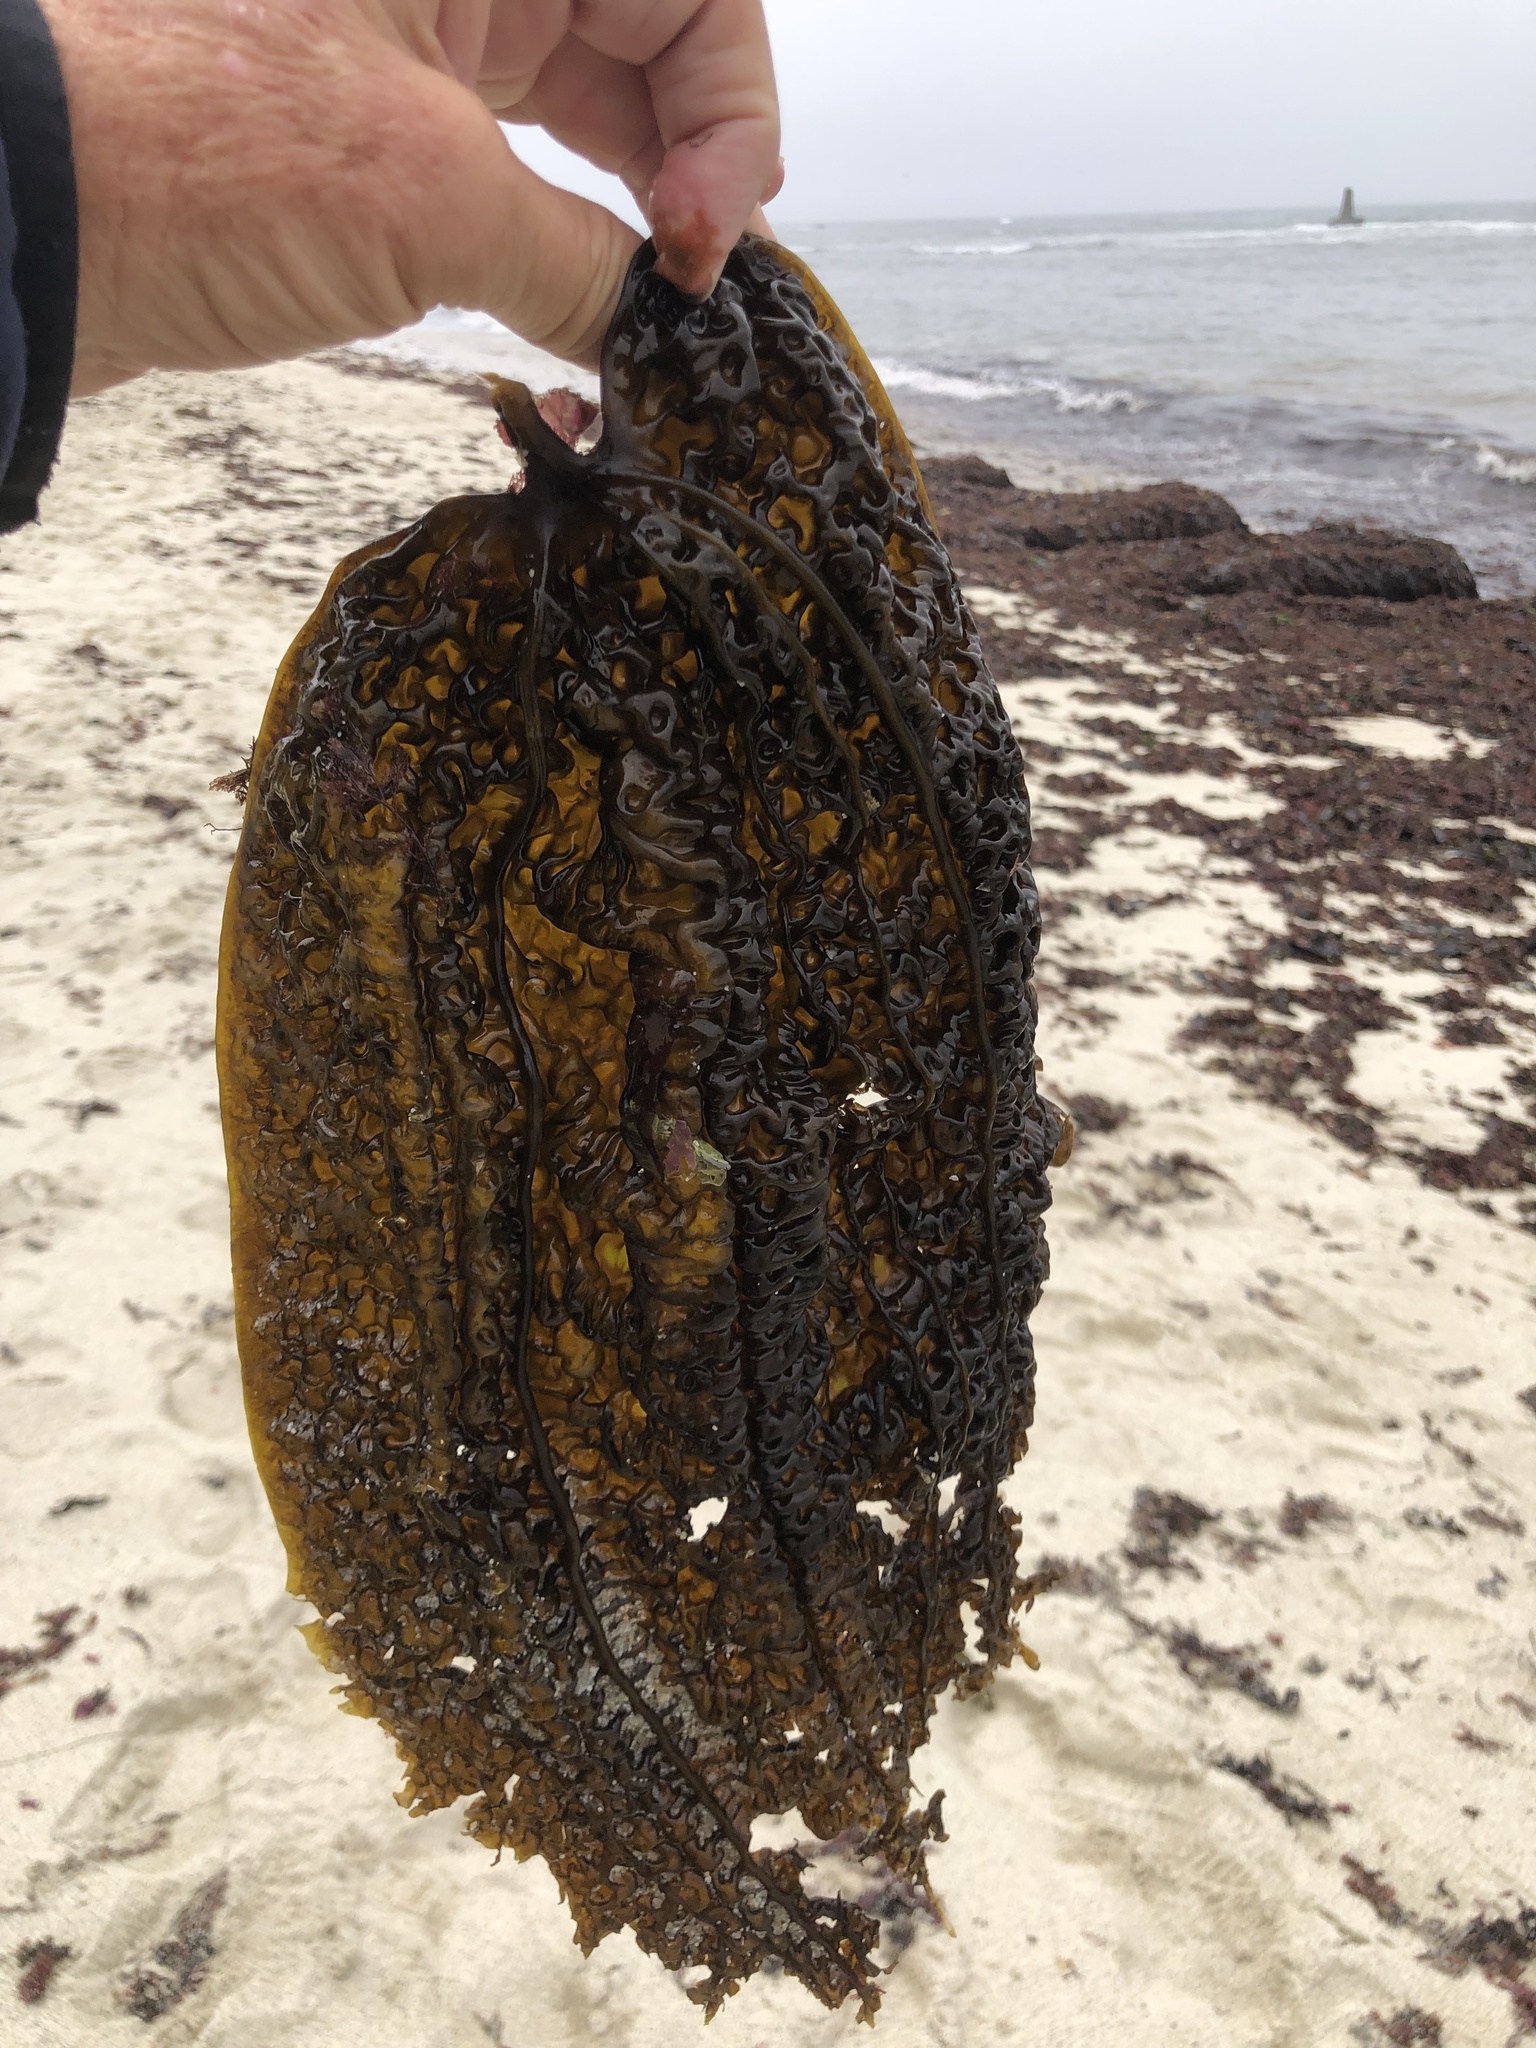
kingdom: Chromista
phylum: Ochrophyta
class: Phaeophyceae
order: Laminariales
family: Costariaceae
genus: Costaria
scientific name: Costaria costata
